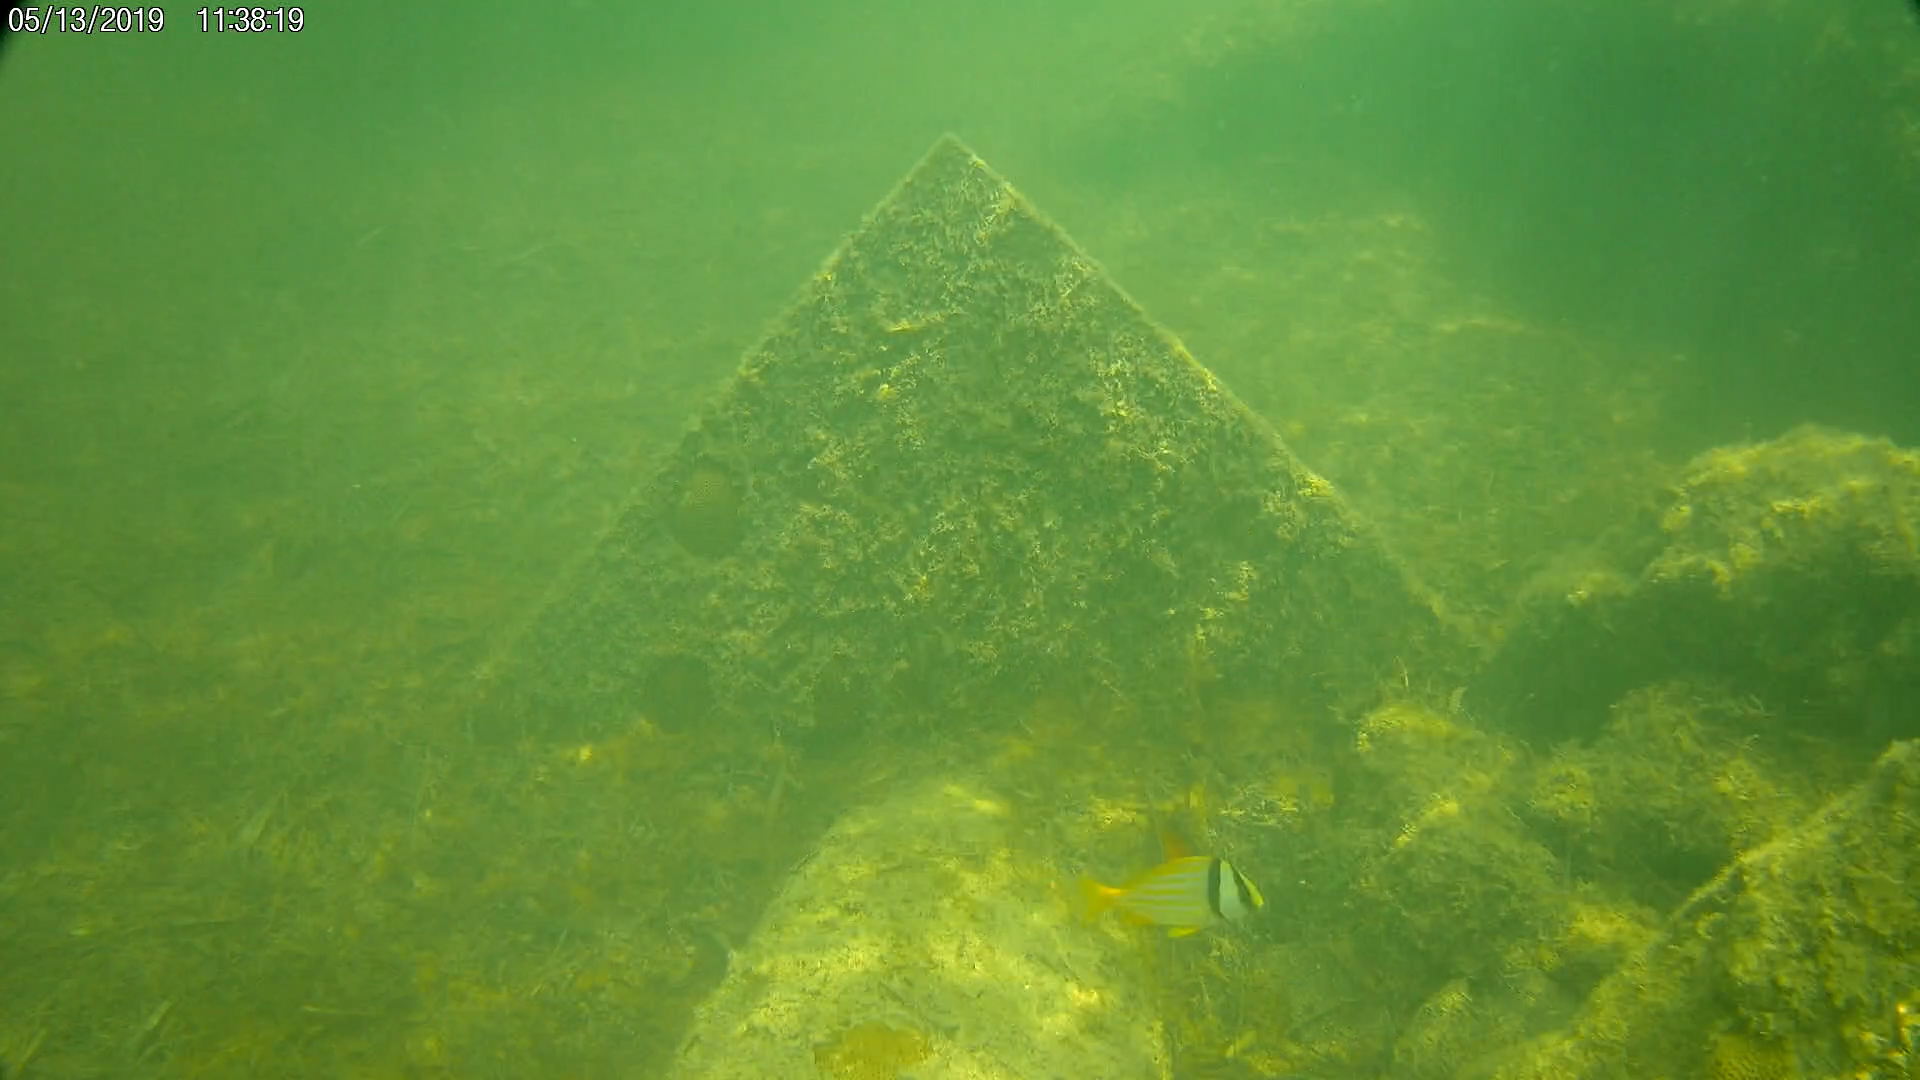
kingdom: Animalia
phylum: Chordata
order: Perciformes
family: Haemulidae
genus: Anisotremus
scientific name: Anisotremus virginicus
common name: Porkfish
